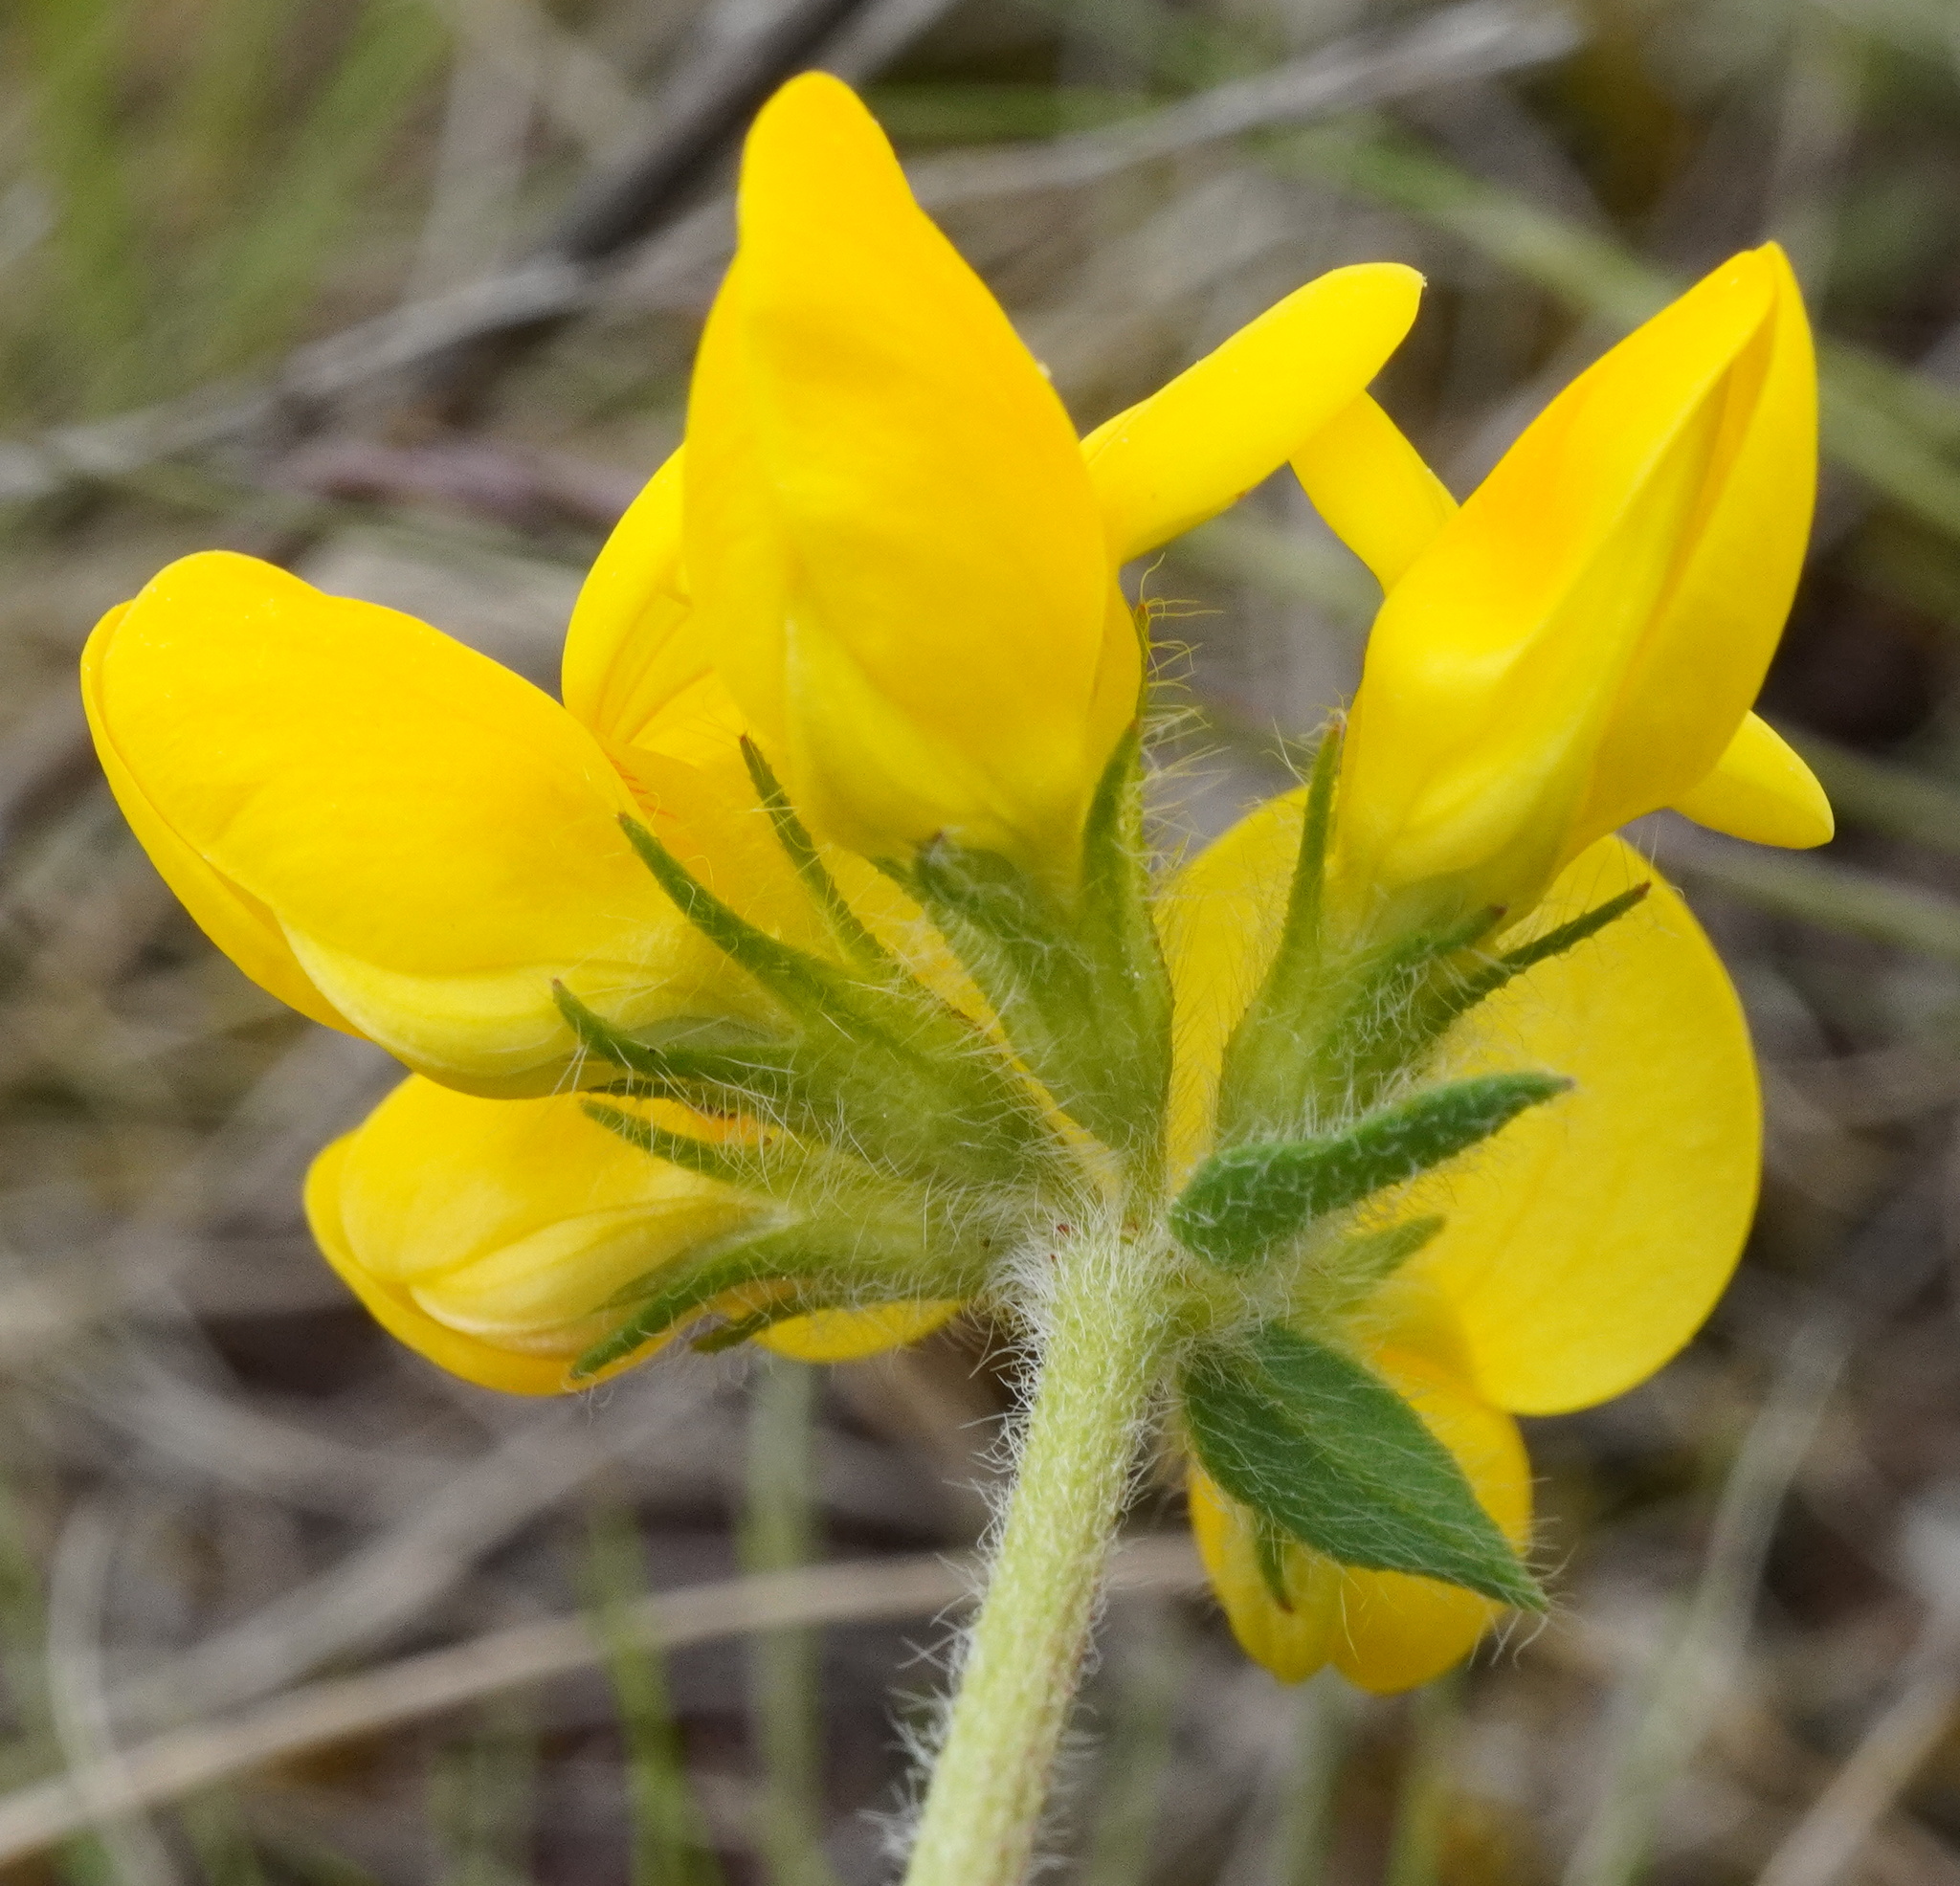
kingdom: Plantae
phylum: Tracheophyta
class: Magnoliopsida
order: Fabales
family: Fabaceae
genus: Lotus
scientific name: Lotus borbasii
